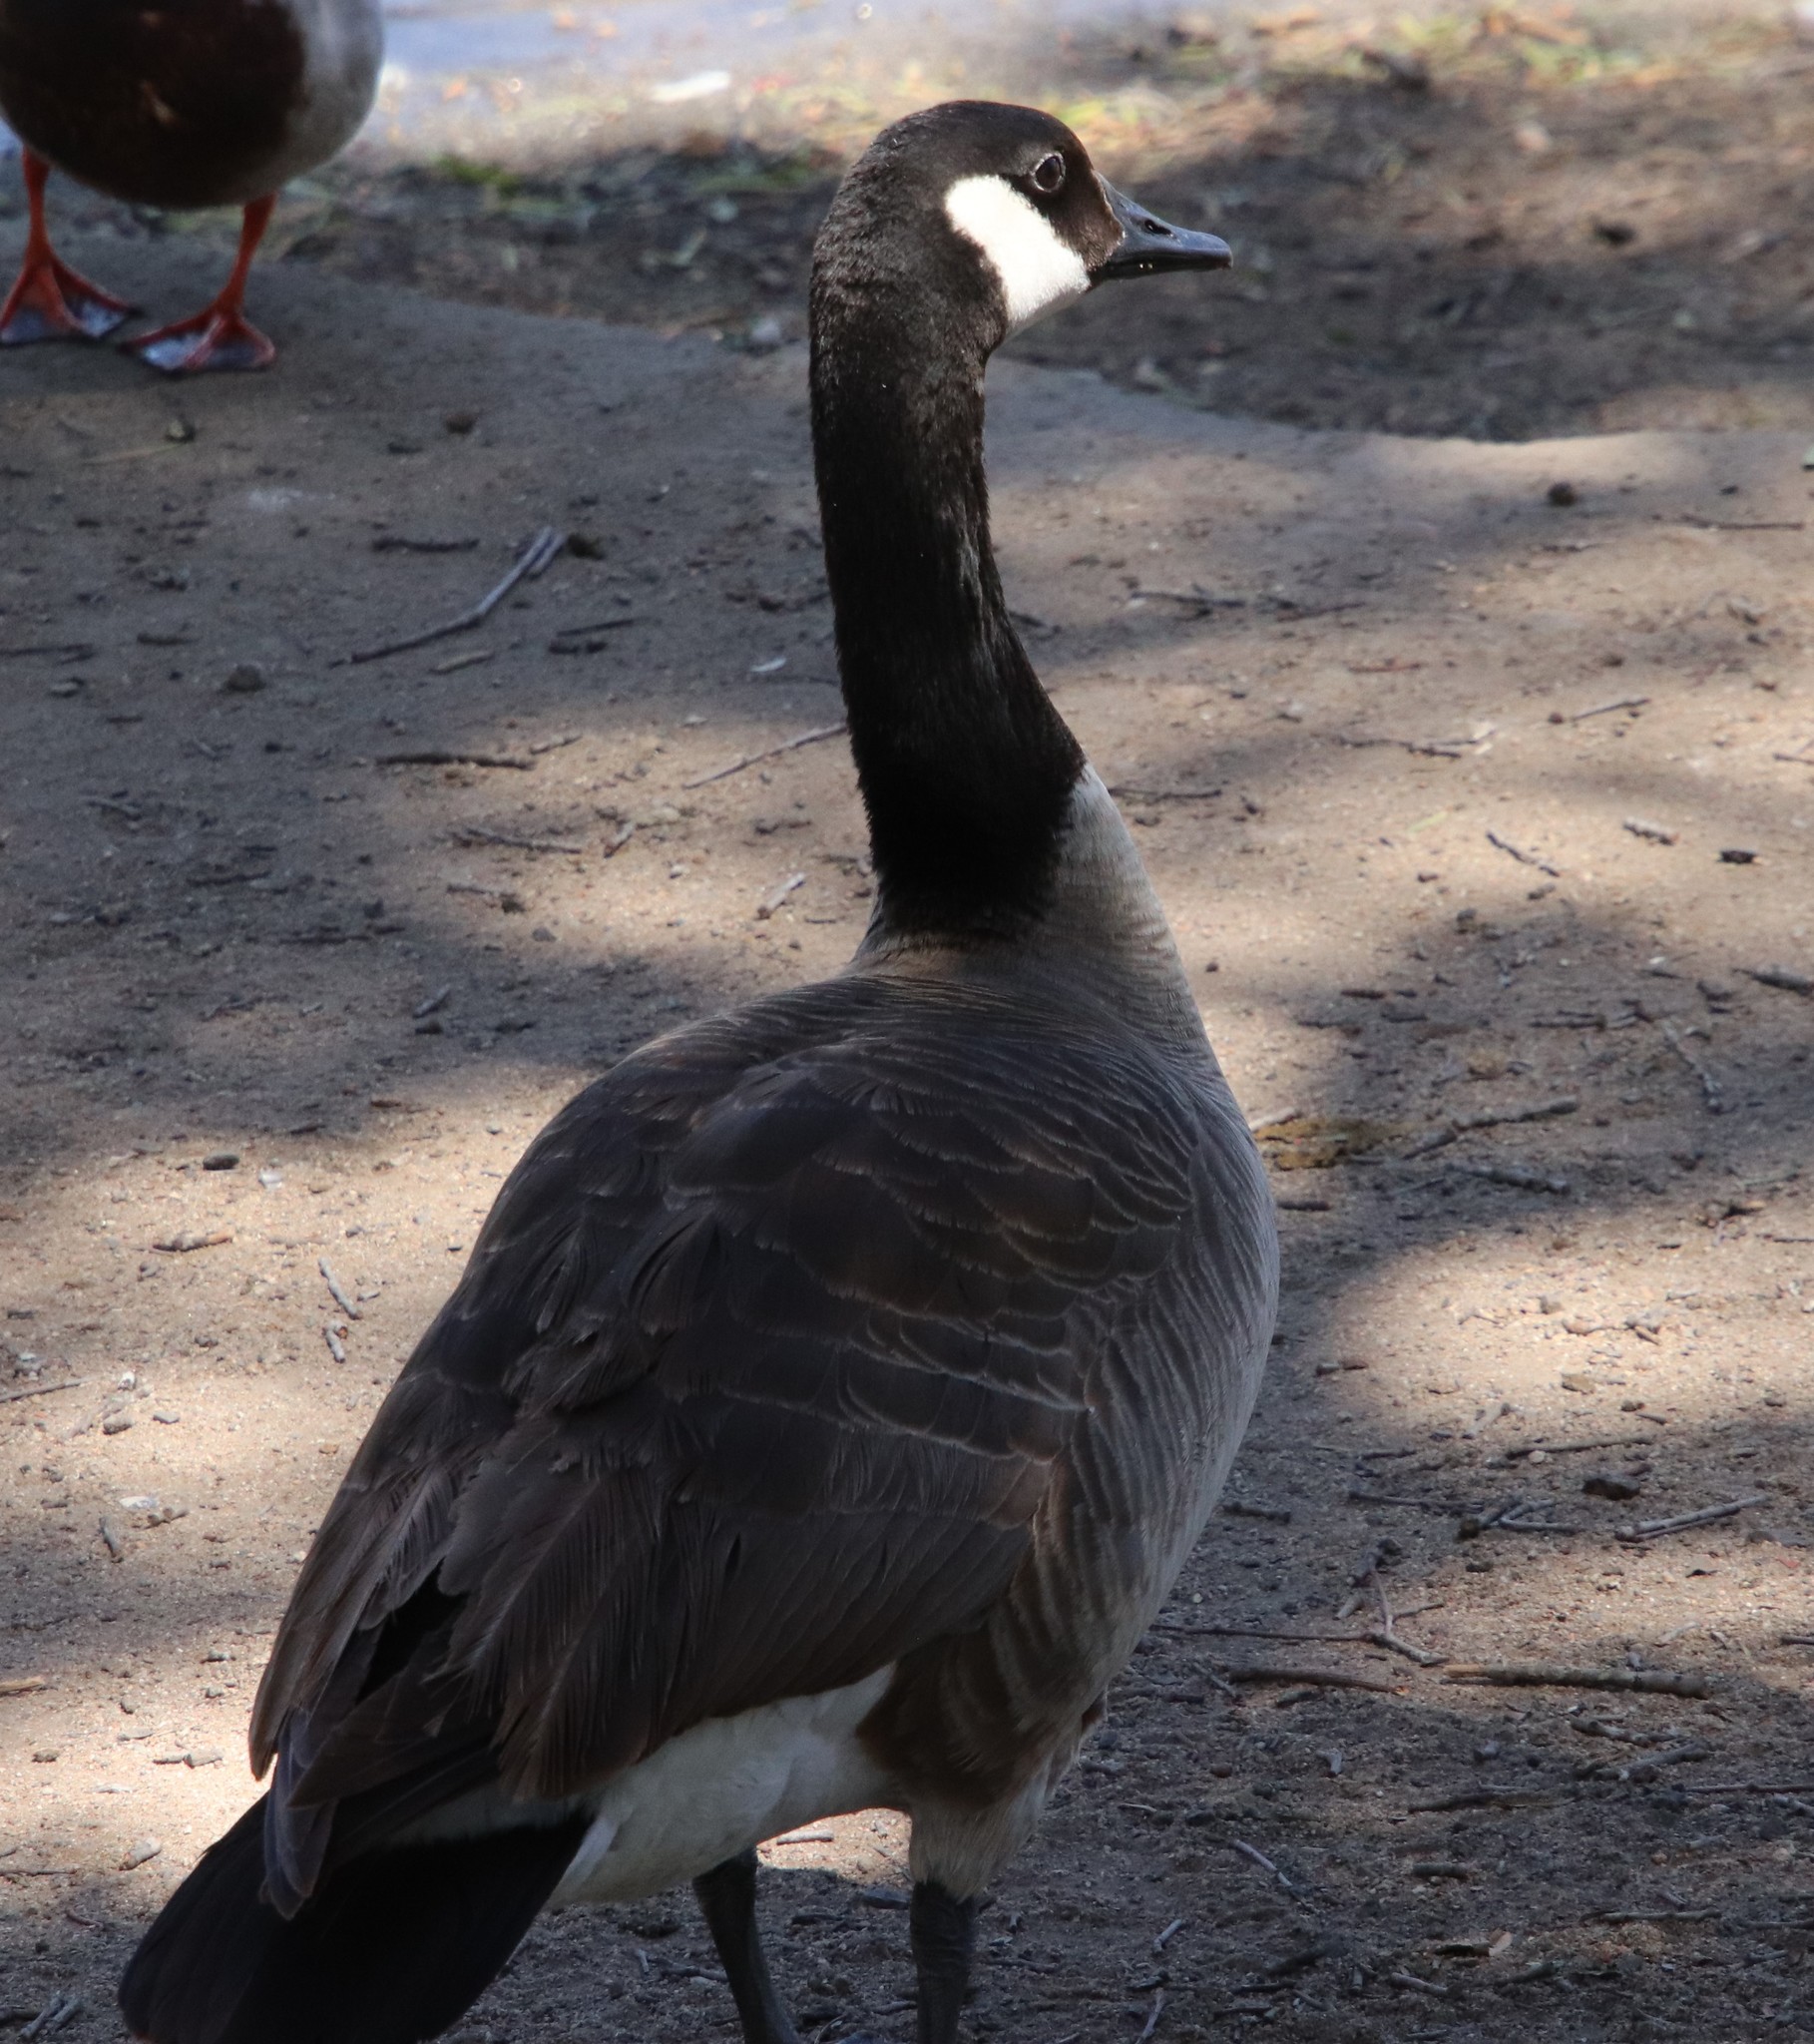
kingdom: Animalia
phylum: Chordata
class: Aves
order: Anseriformes
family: Anatidae
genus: Branta
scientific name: Branta canadensis
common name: Canada goose
